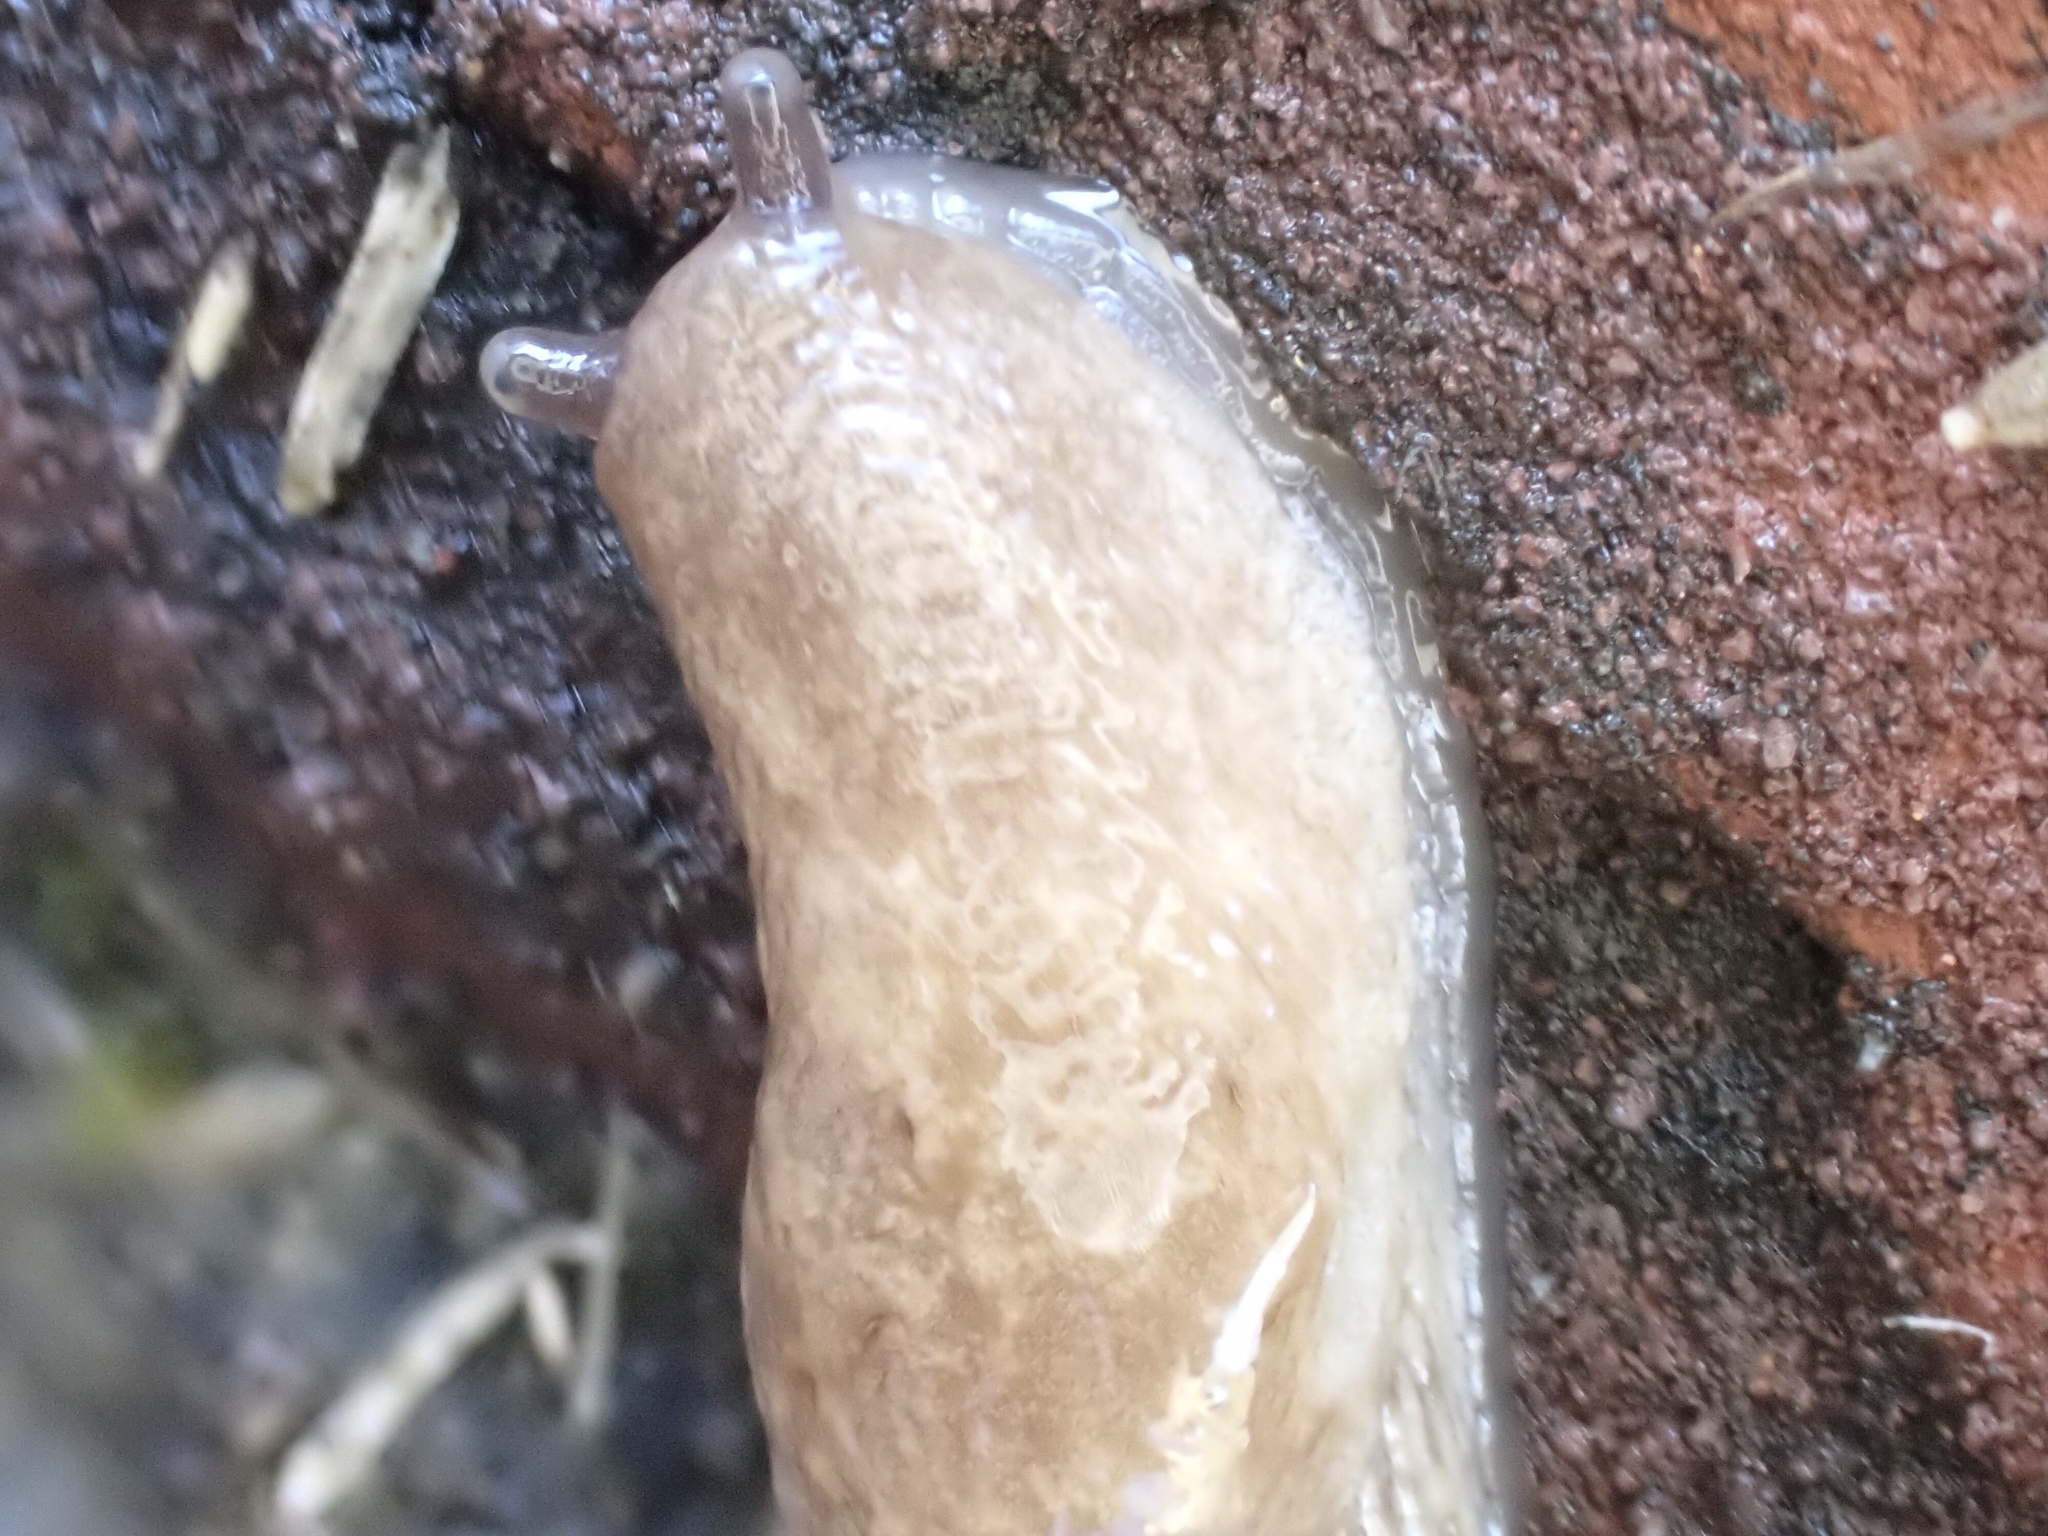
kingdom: Animalia
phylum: Mollusca
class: Gastropoda
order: Stylommatophora
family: Agriolimacidae
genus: Deroceras
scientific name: Deroceras reticulatum
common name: Gray field slug
